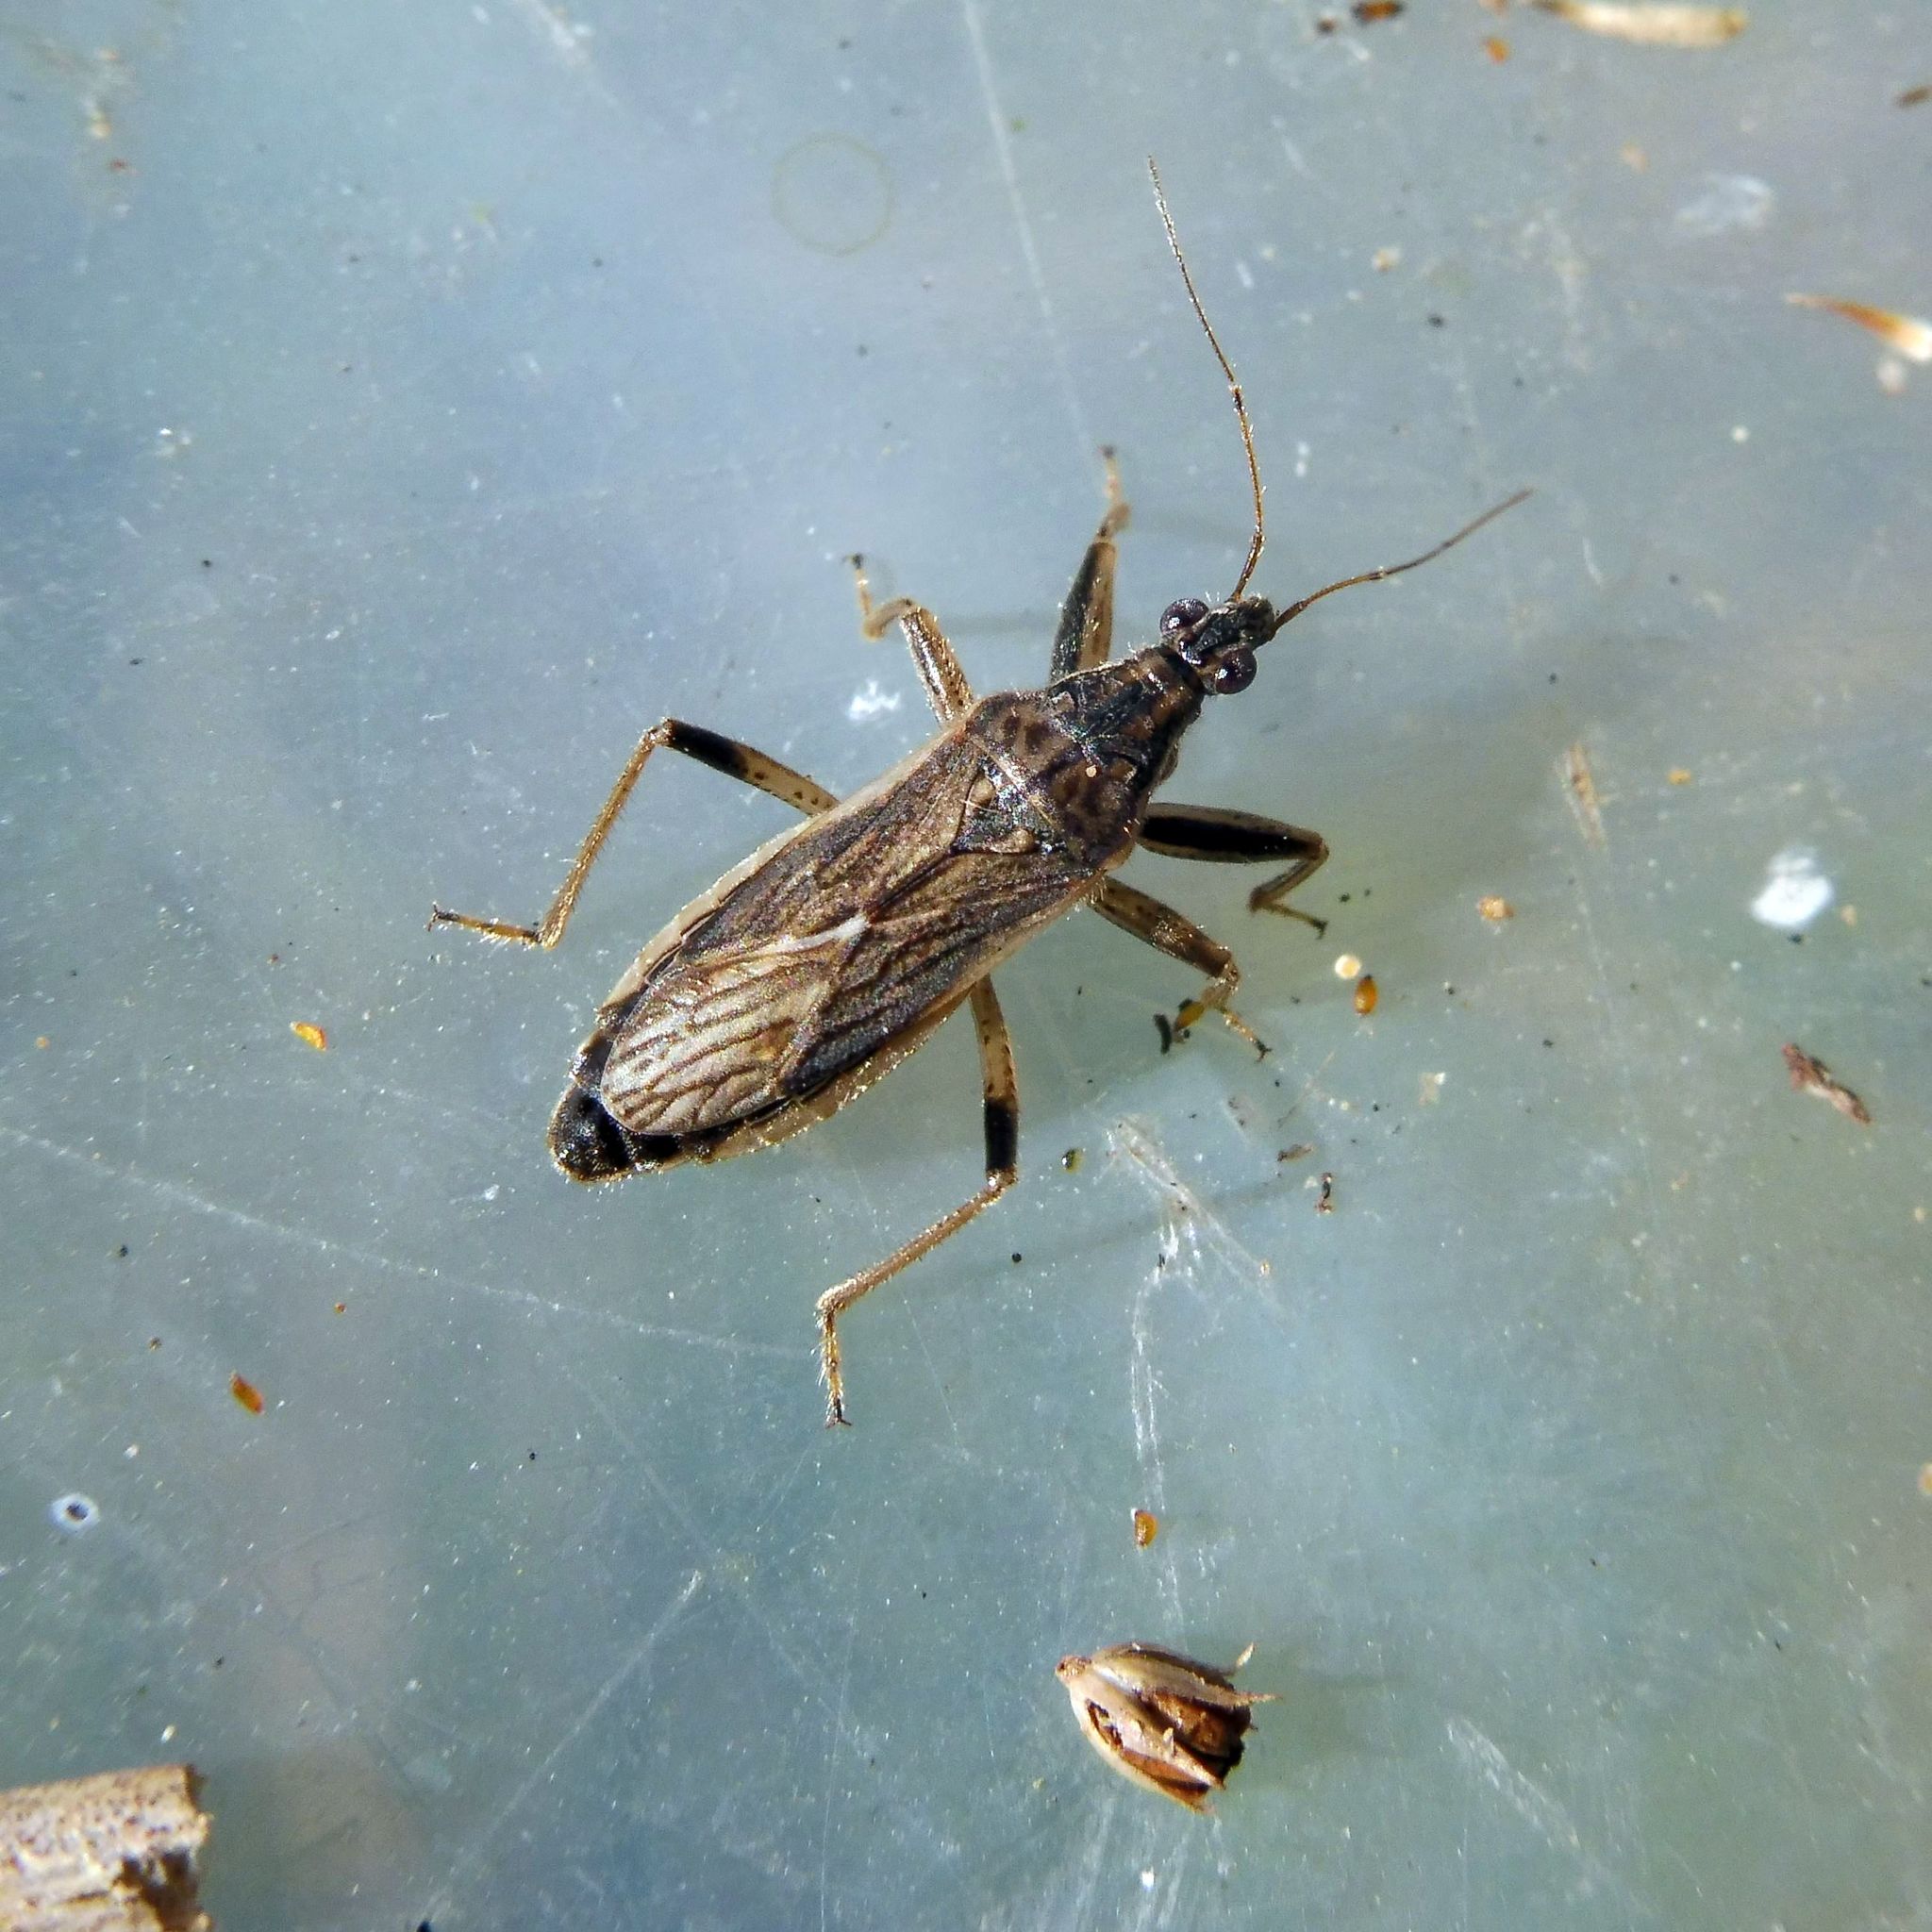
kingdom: Animalia
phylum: Arthropoda
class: Insecta
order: Hemiptera
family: Nabidae
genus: Himacerus
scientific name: Himacerus major
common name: Damsel bug
